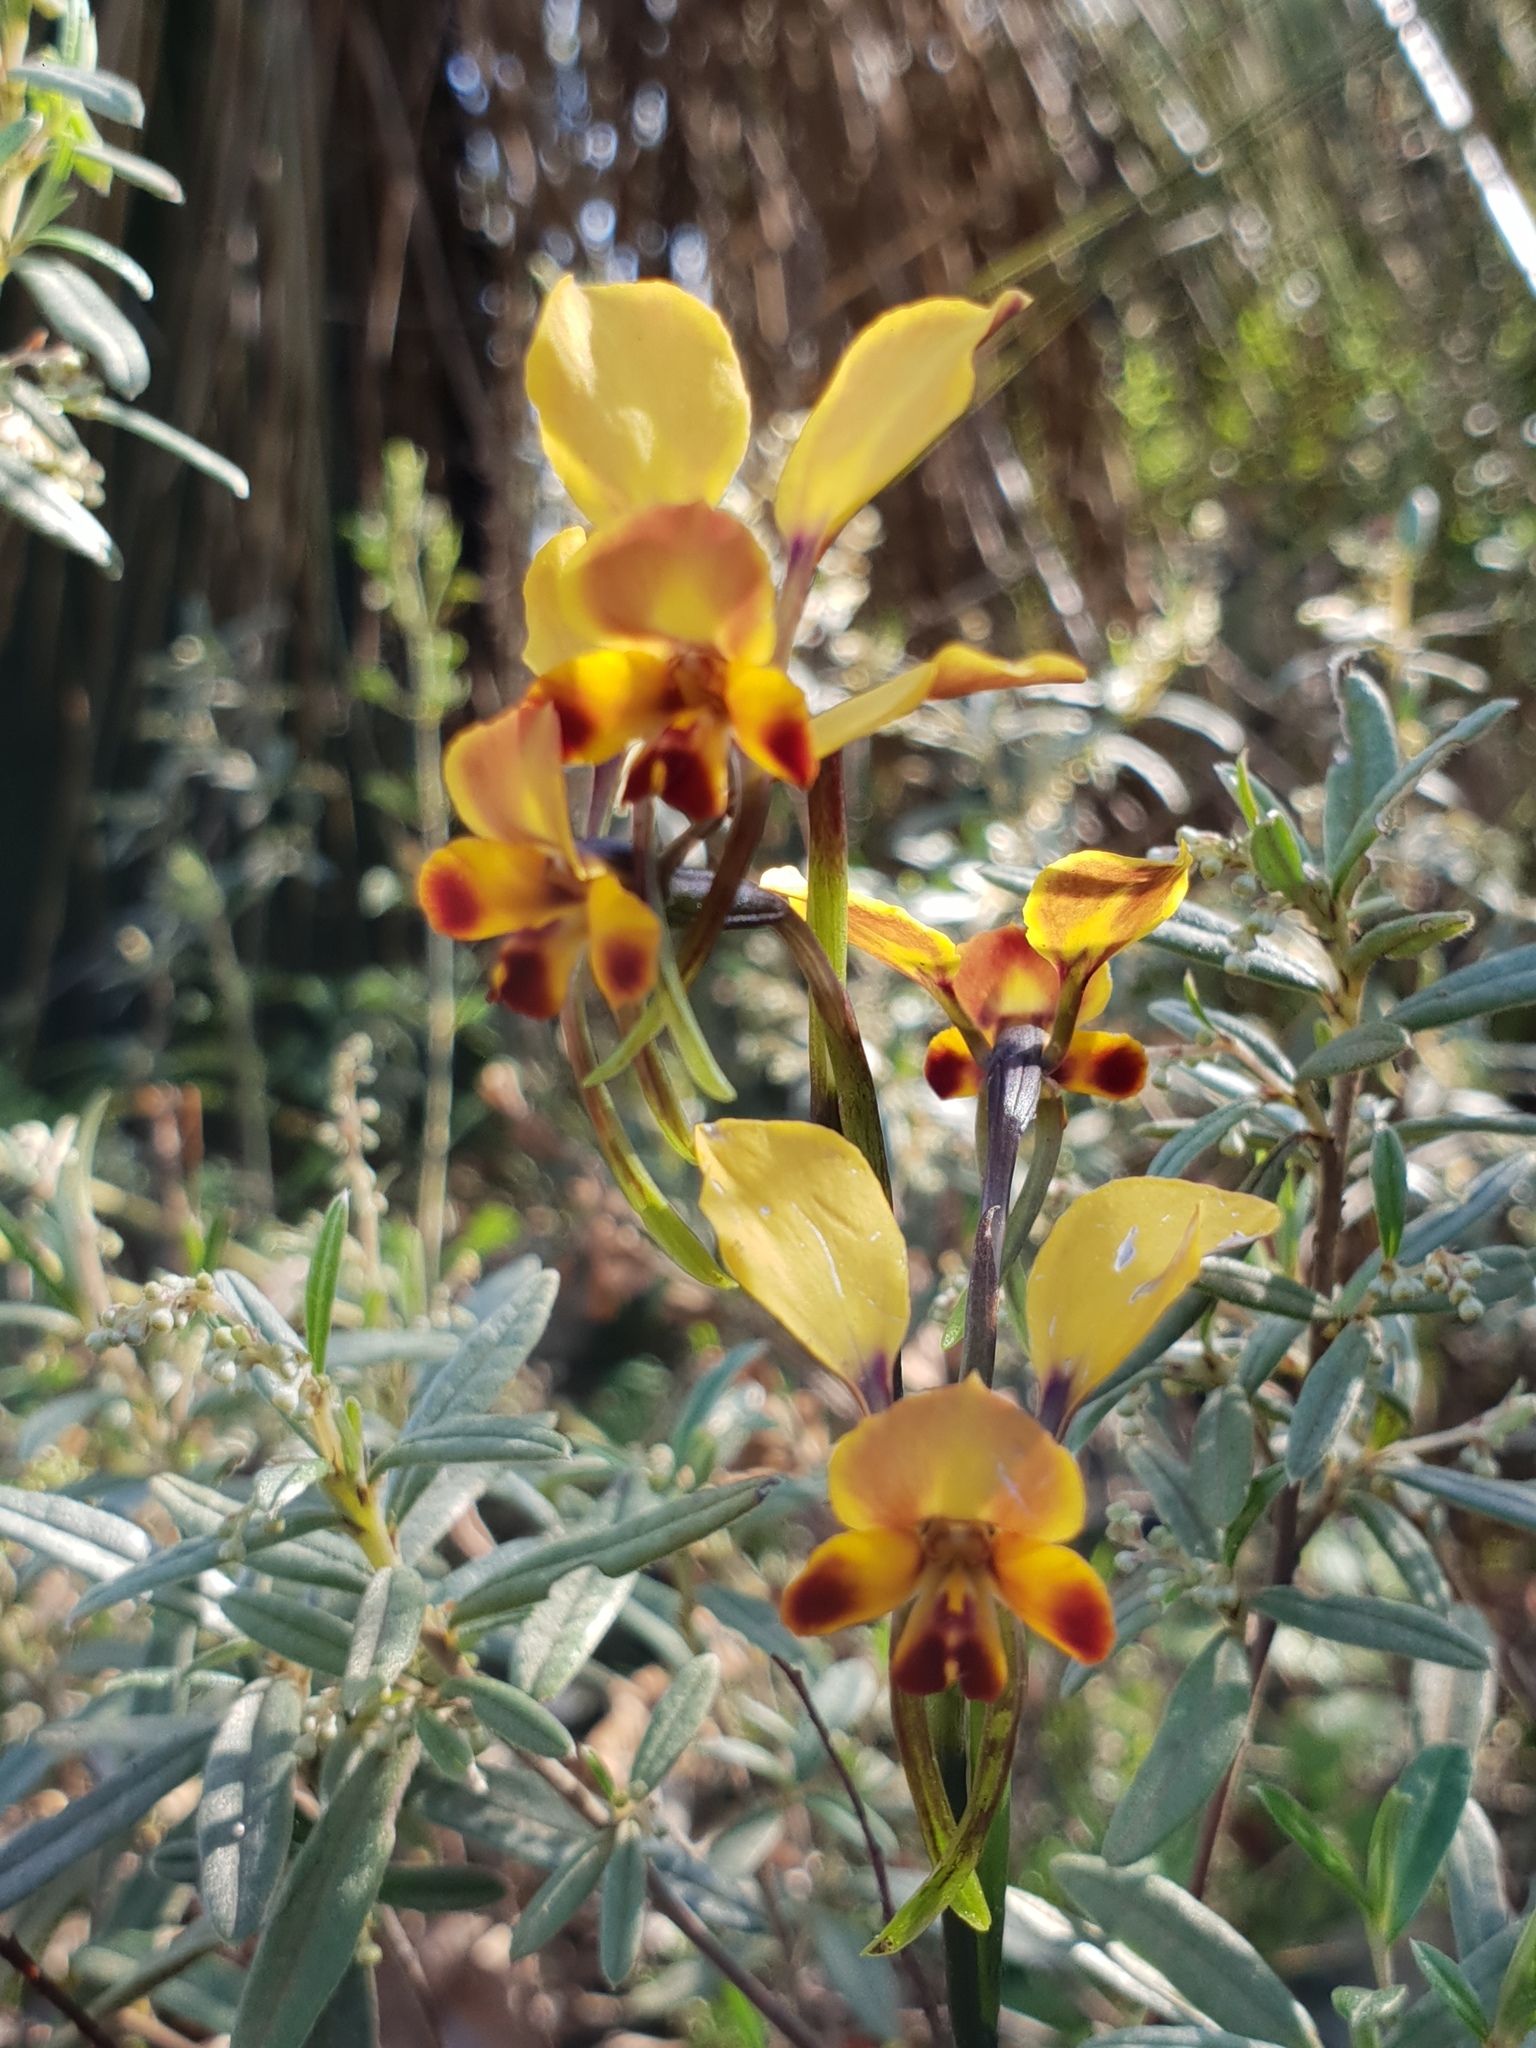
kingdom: Plantae
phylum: Tracheophyta
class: Liliopsida
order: Asparagales
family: Orchidaceae
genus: Diuris
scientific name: Diuris brumalis
